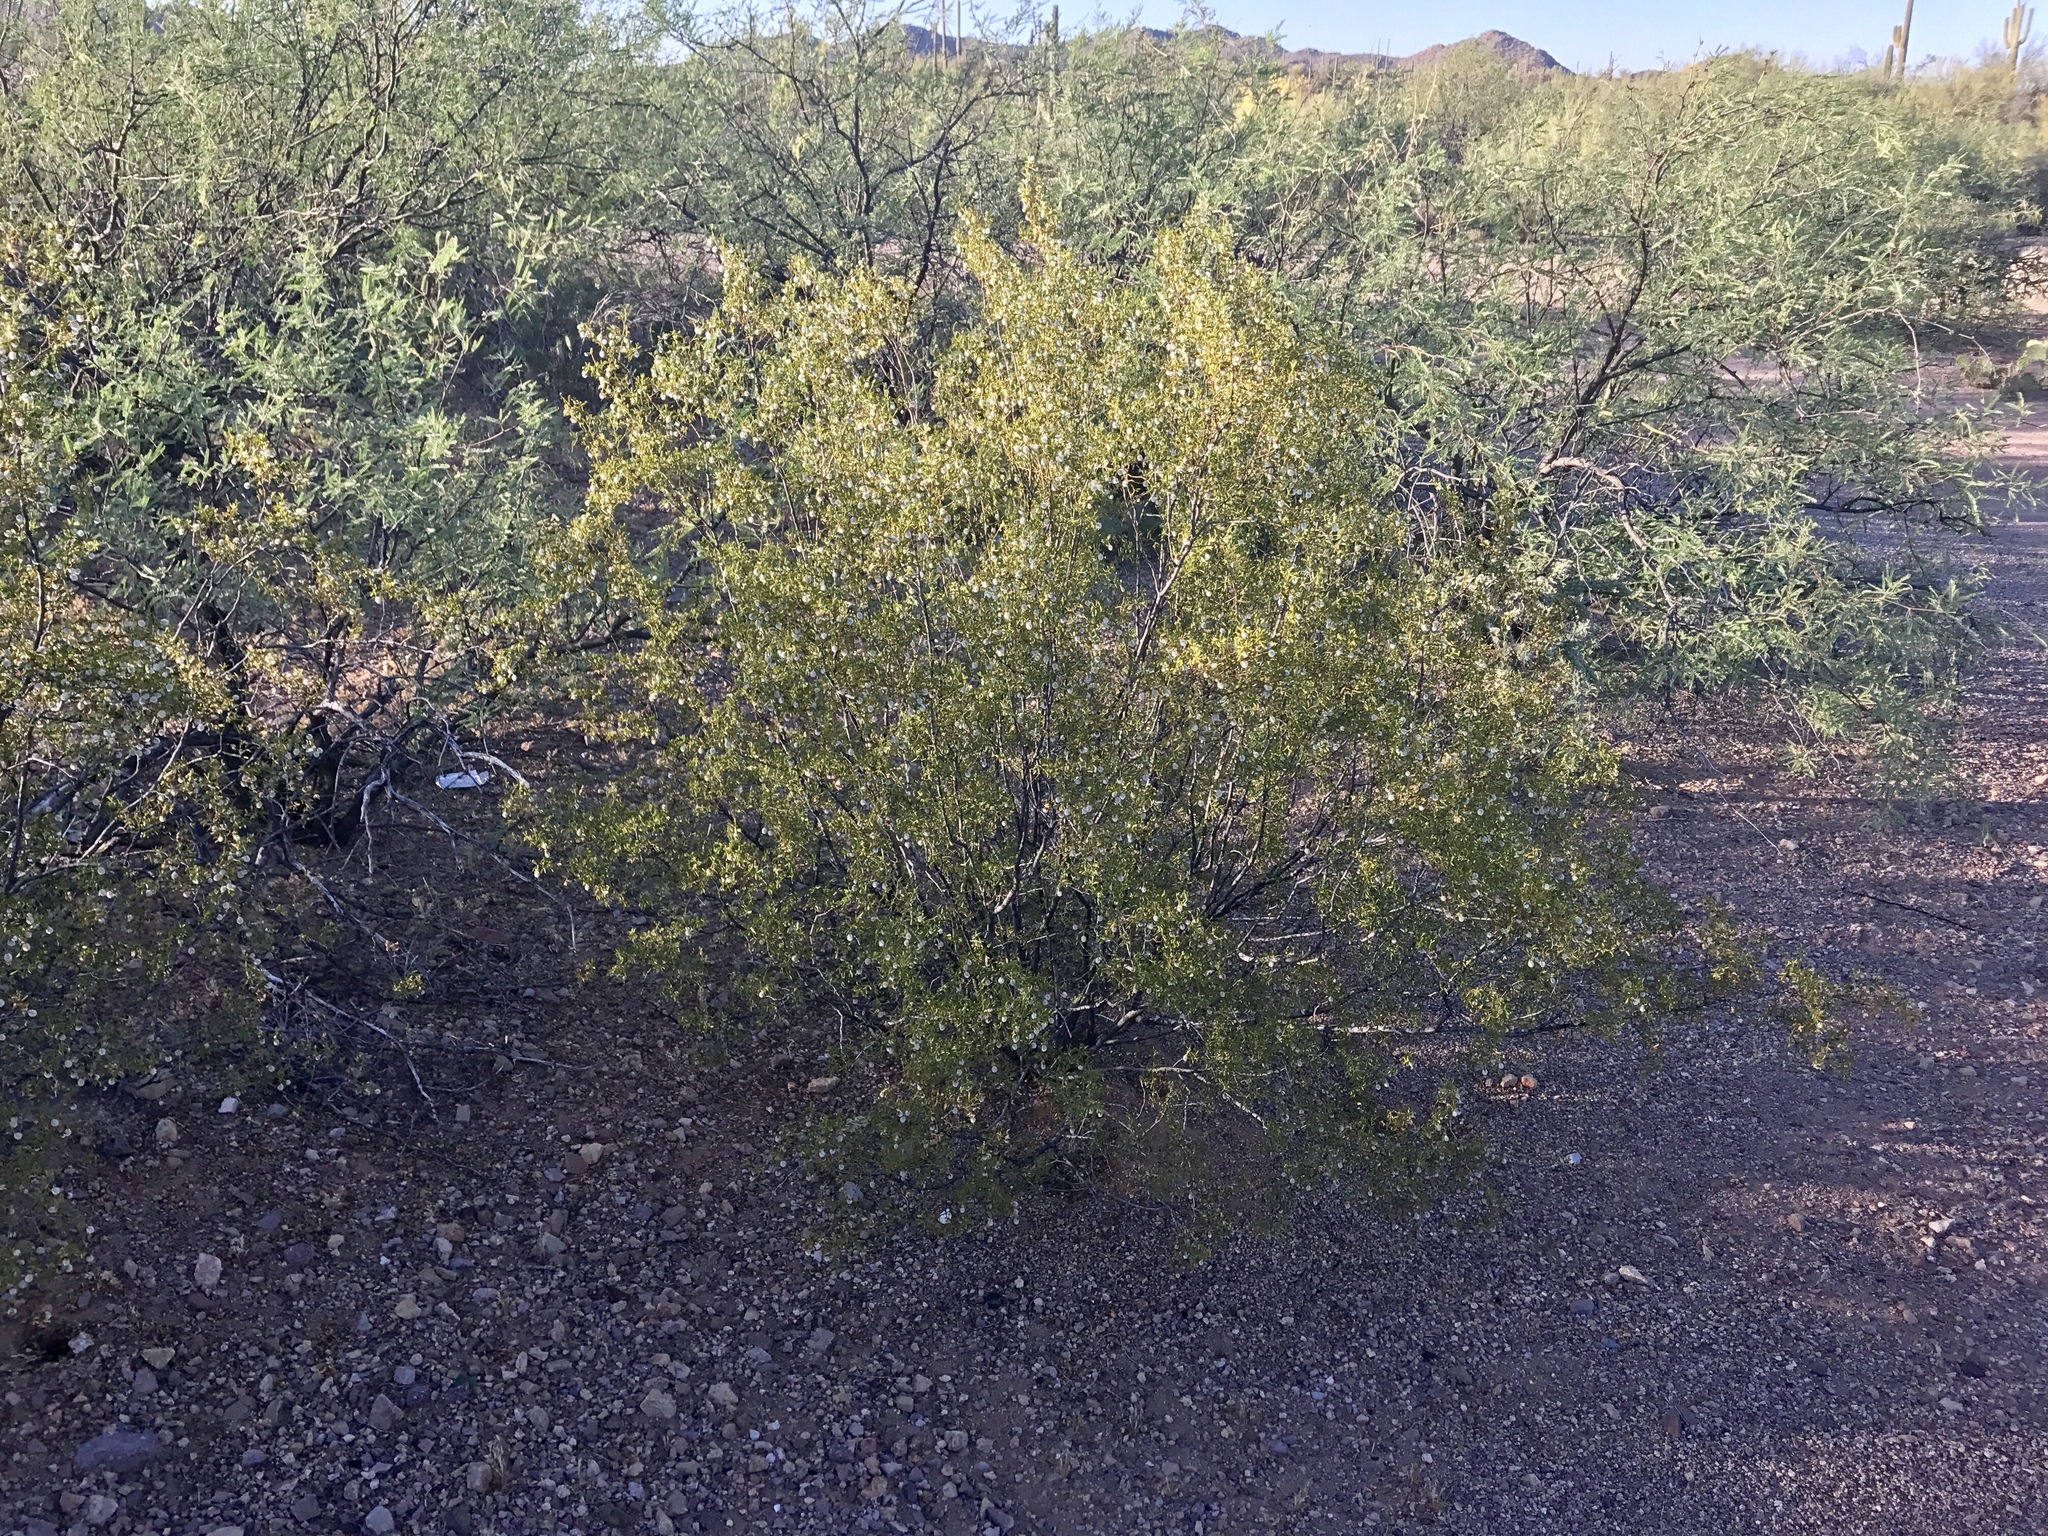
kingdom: Plantae
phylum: Tracheophyta
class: Magnoliopsida
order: Zygophyllales
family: Zygophyllaceae
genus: Larrea
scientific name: Larrea tridentata
